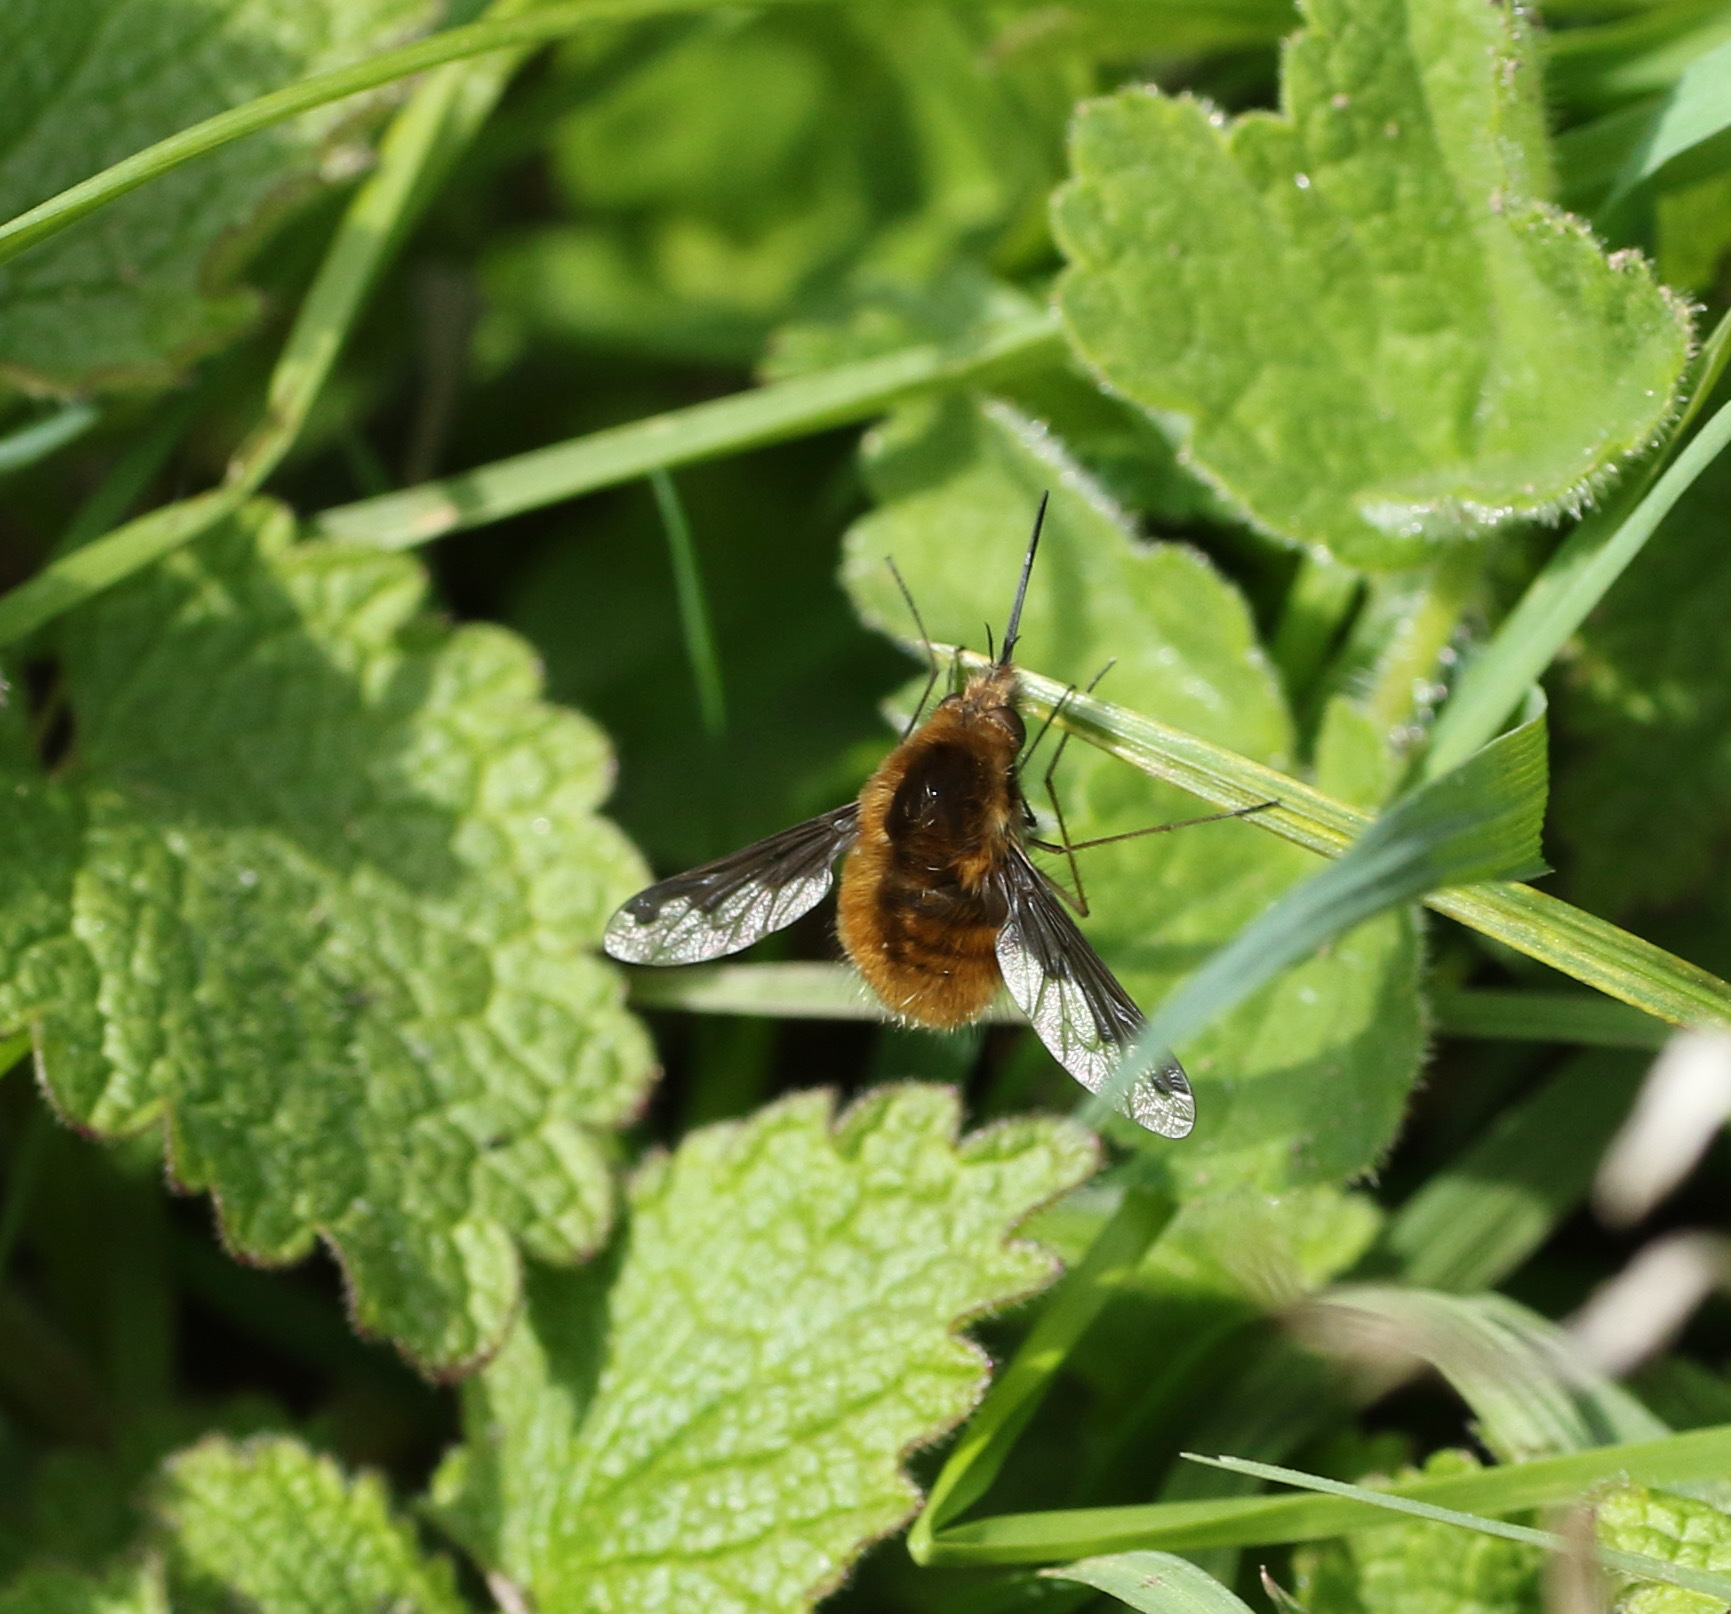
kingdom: Animalia
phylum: Arthropoda
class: Insecta
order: Diptera
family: Bombyliidae
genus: Bombylius
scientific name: Bombylius major
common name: Bee fly
